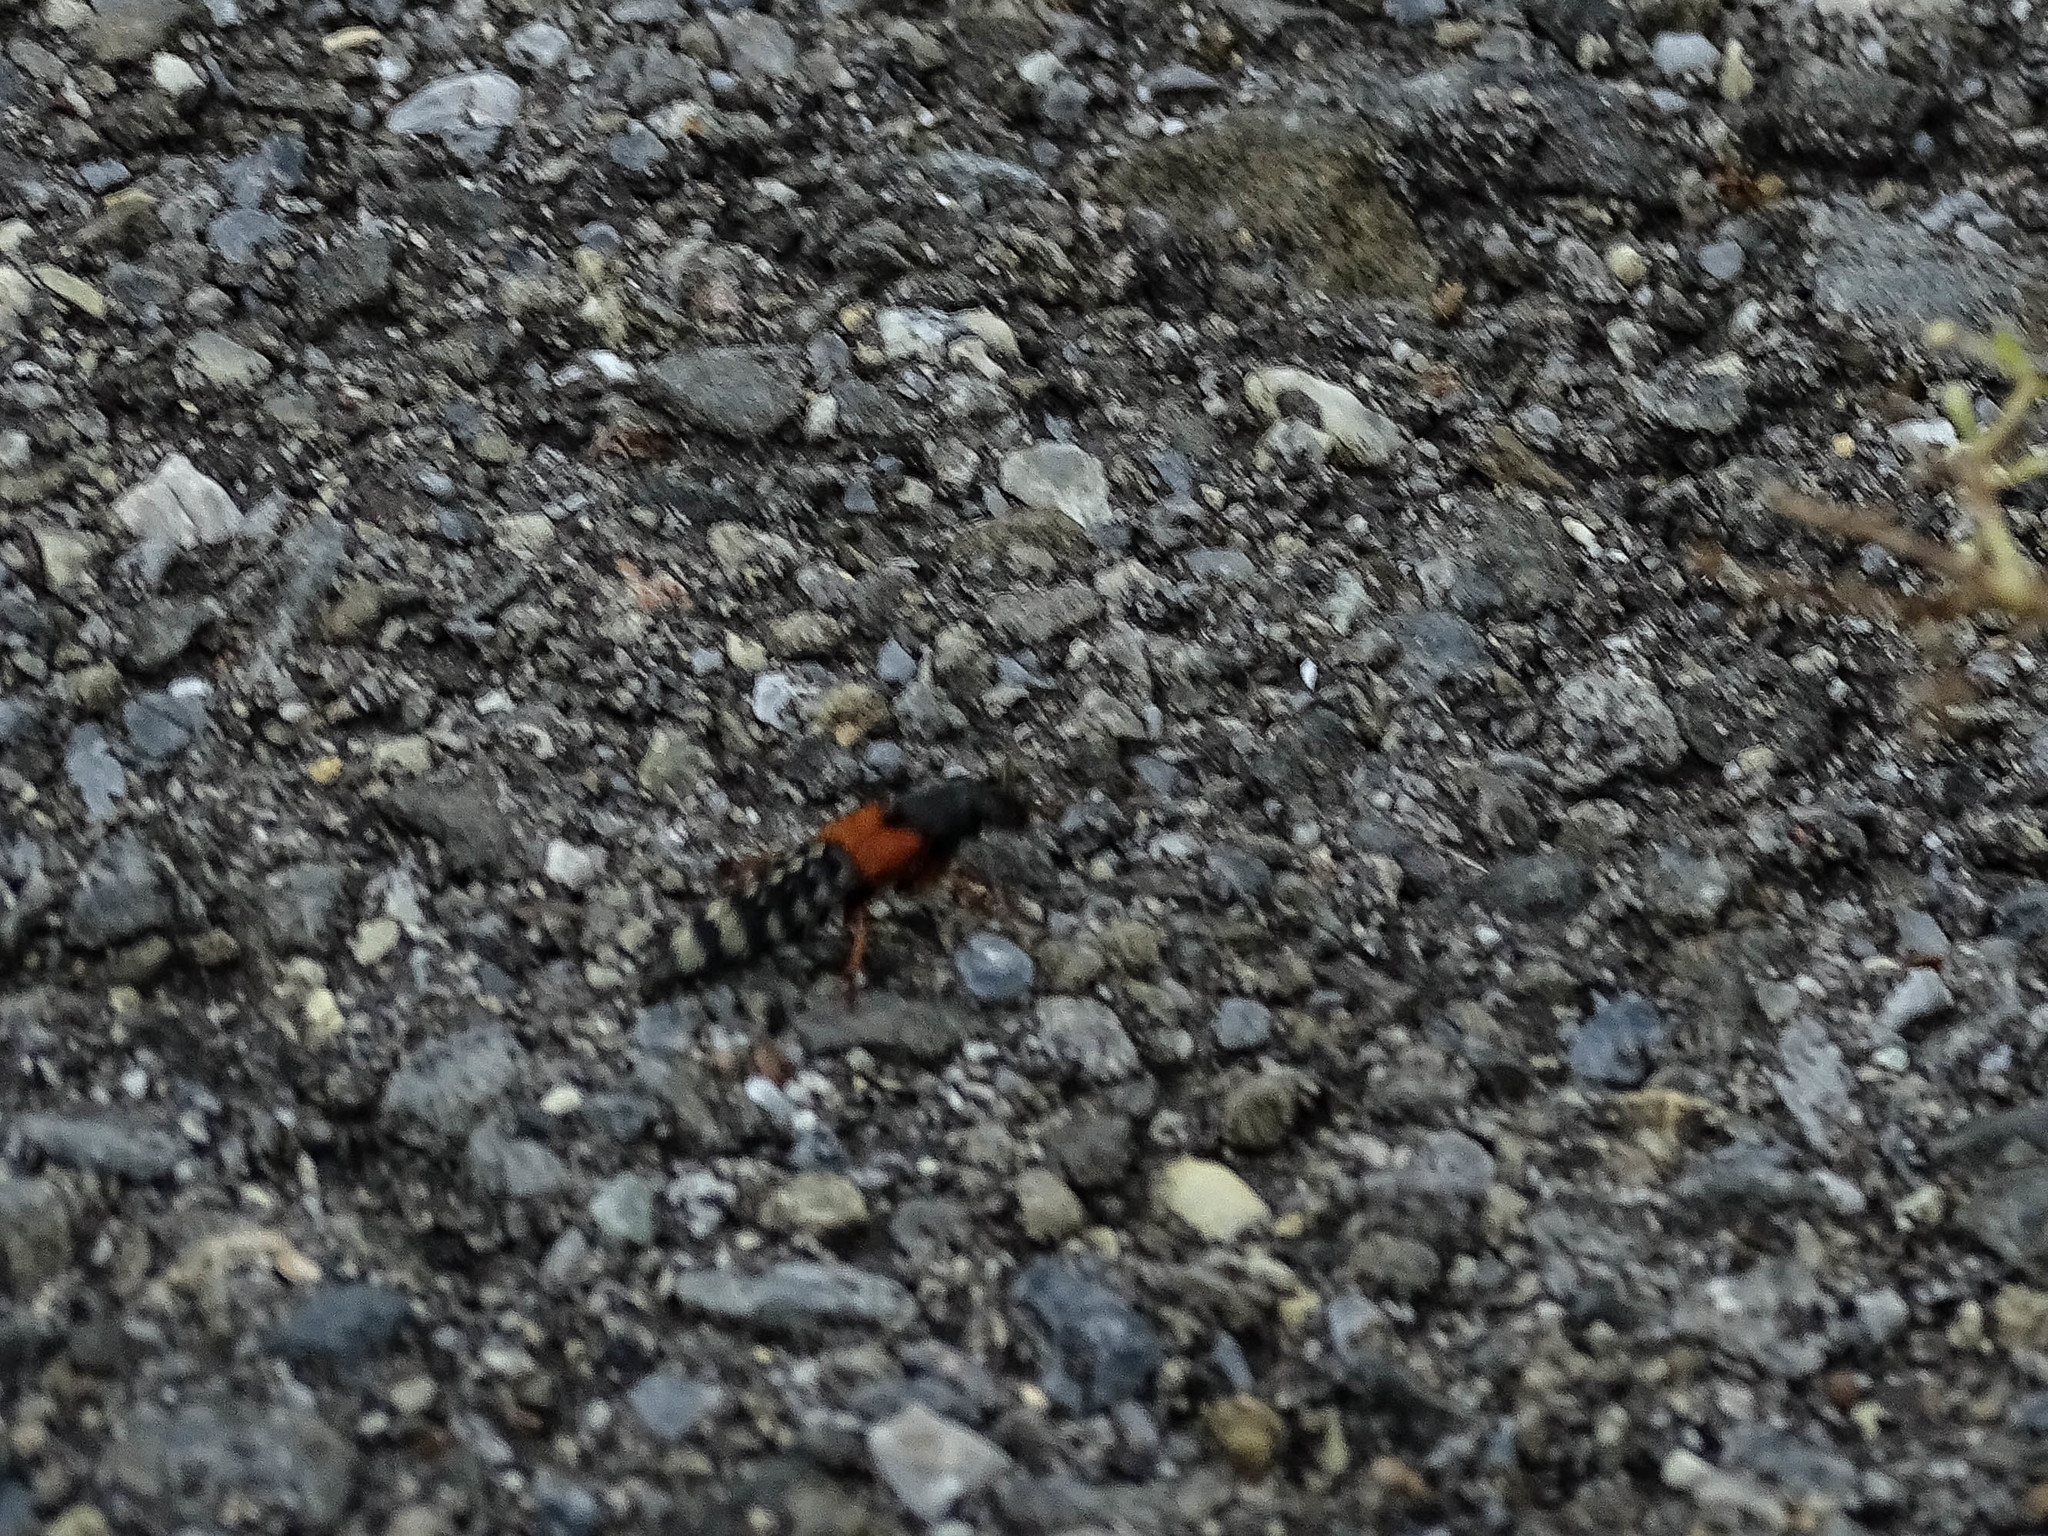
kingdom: Animalia
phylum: Arthropoda
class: Insecta
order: Coleoptera
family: Staphylinidae
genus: Platydracus
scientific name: Platydracus stercorarius
